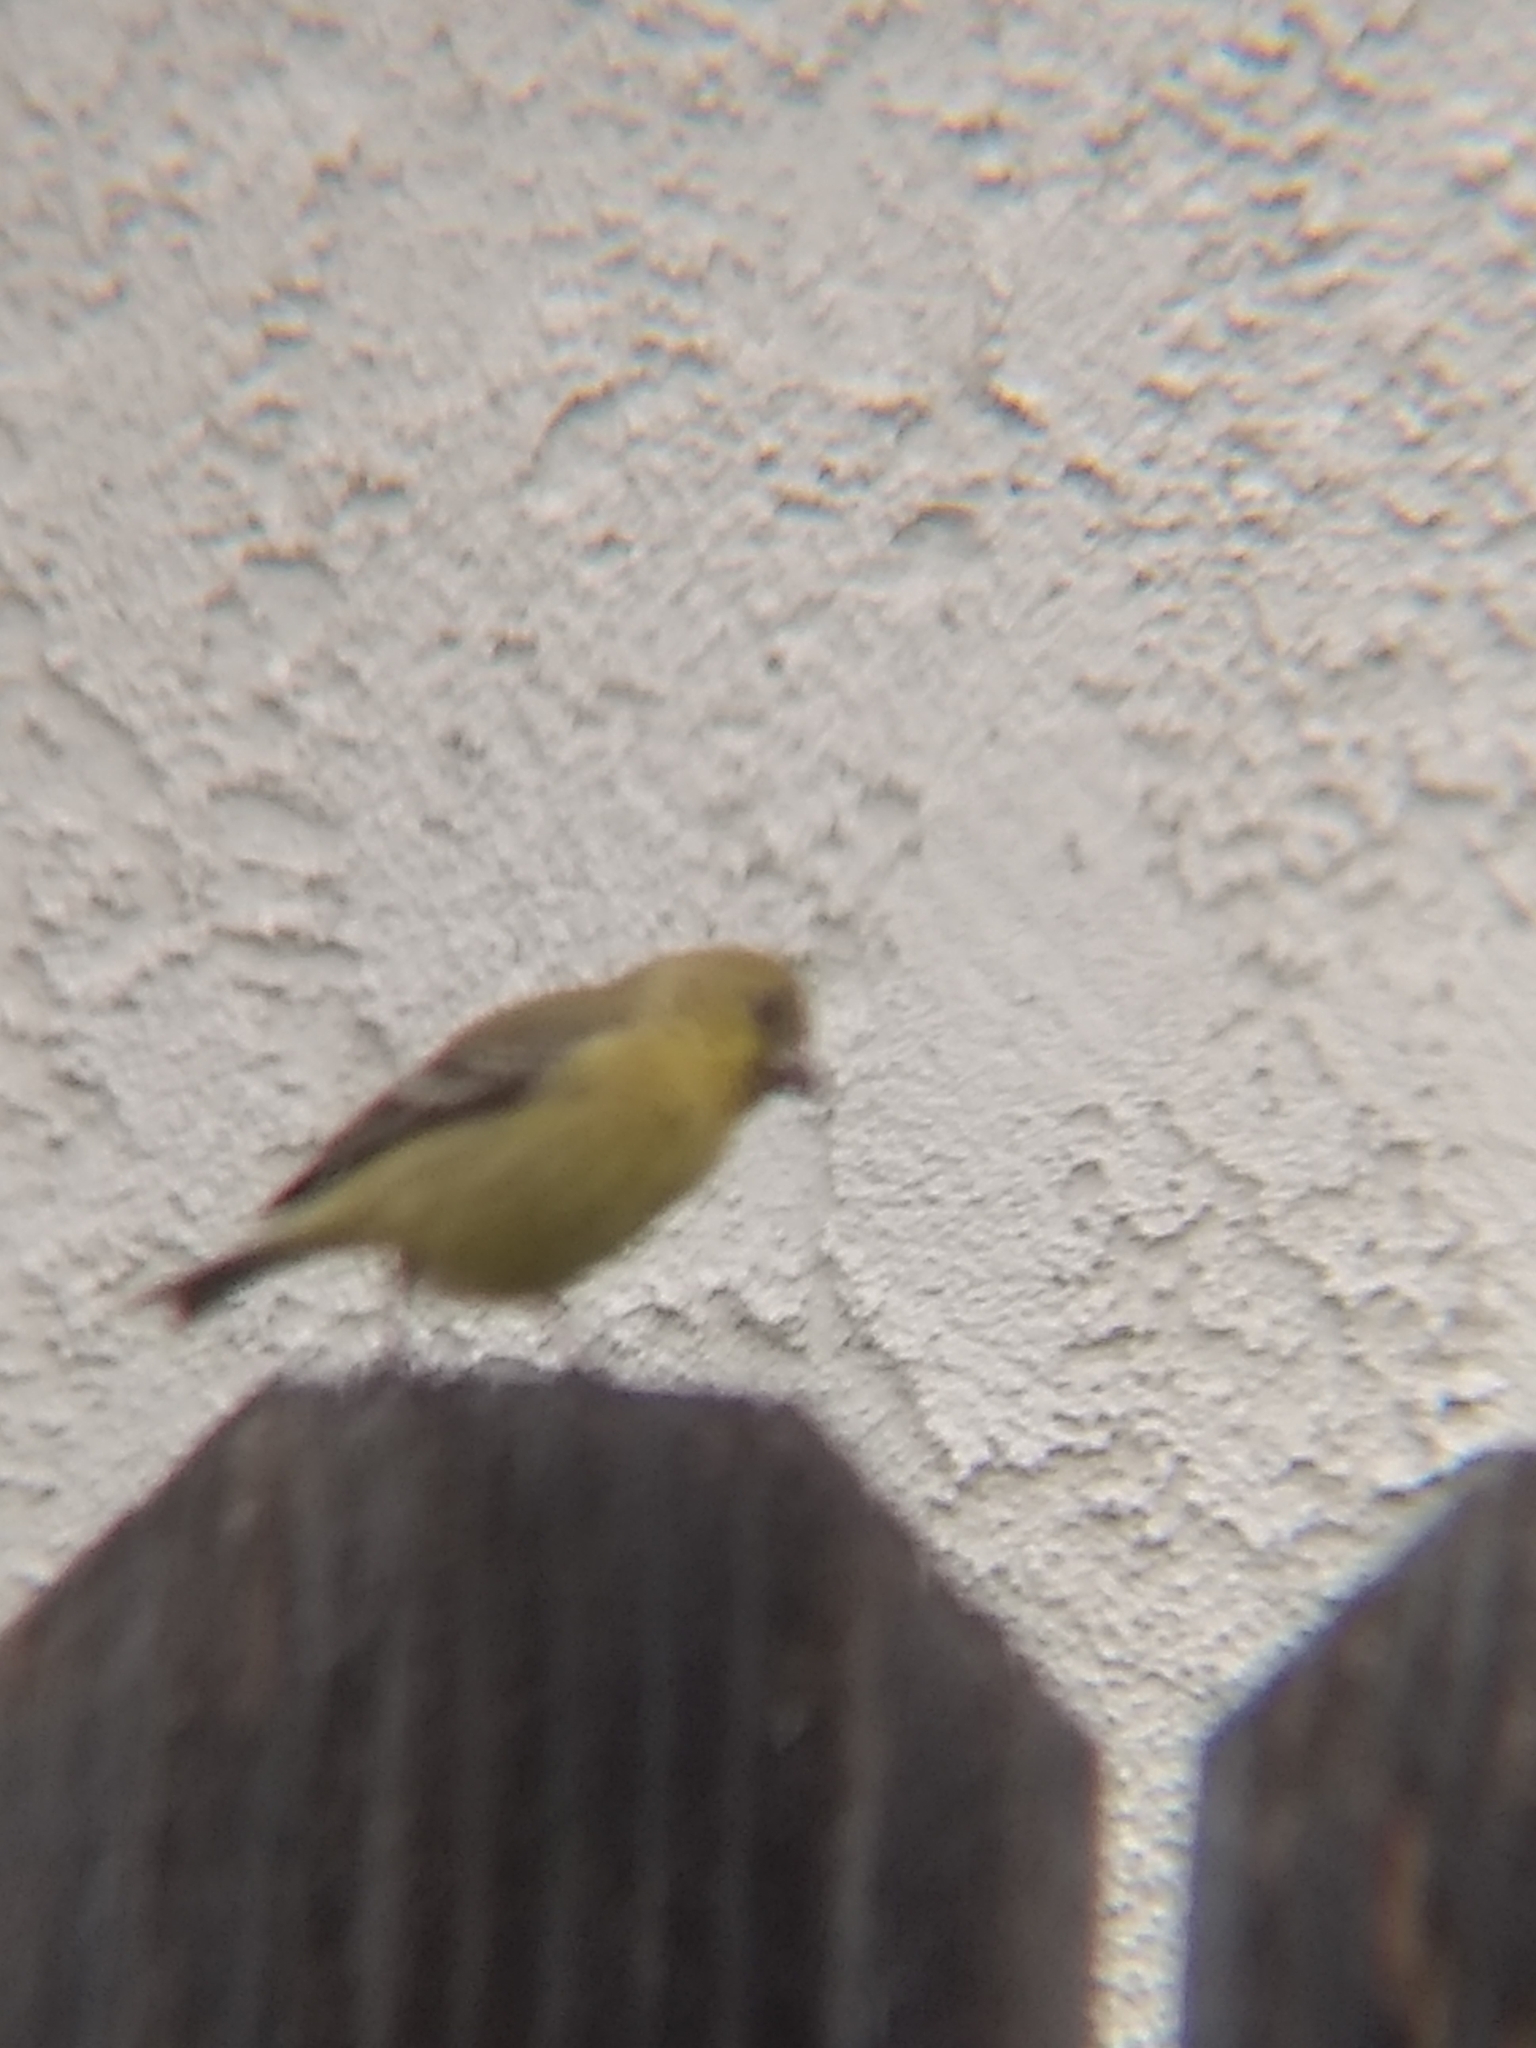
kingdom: Animalia
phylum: Chordata
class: Aves
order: Passeriformes
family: Fringillidae
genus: Spinus
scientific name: Spinus psaltria
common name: Lesser goldfinch
